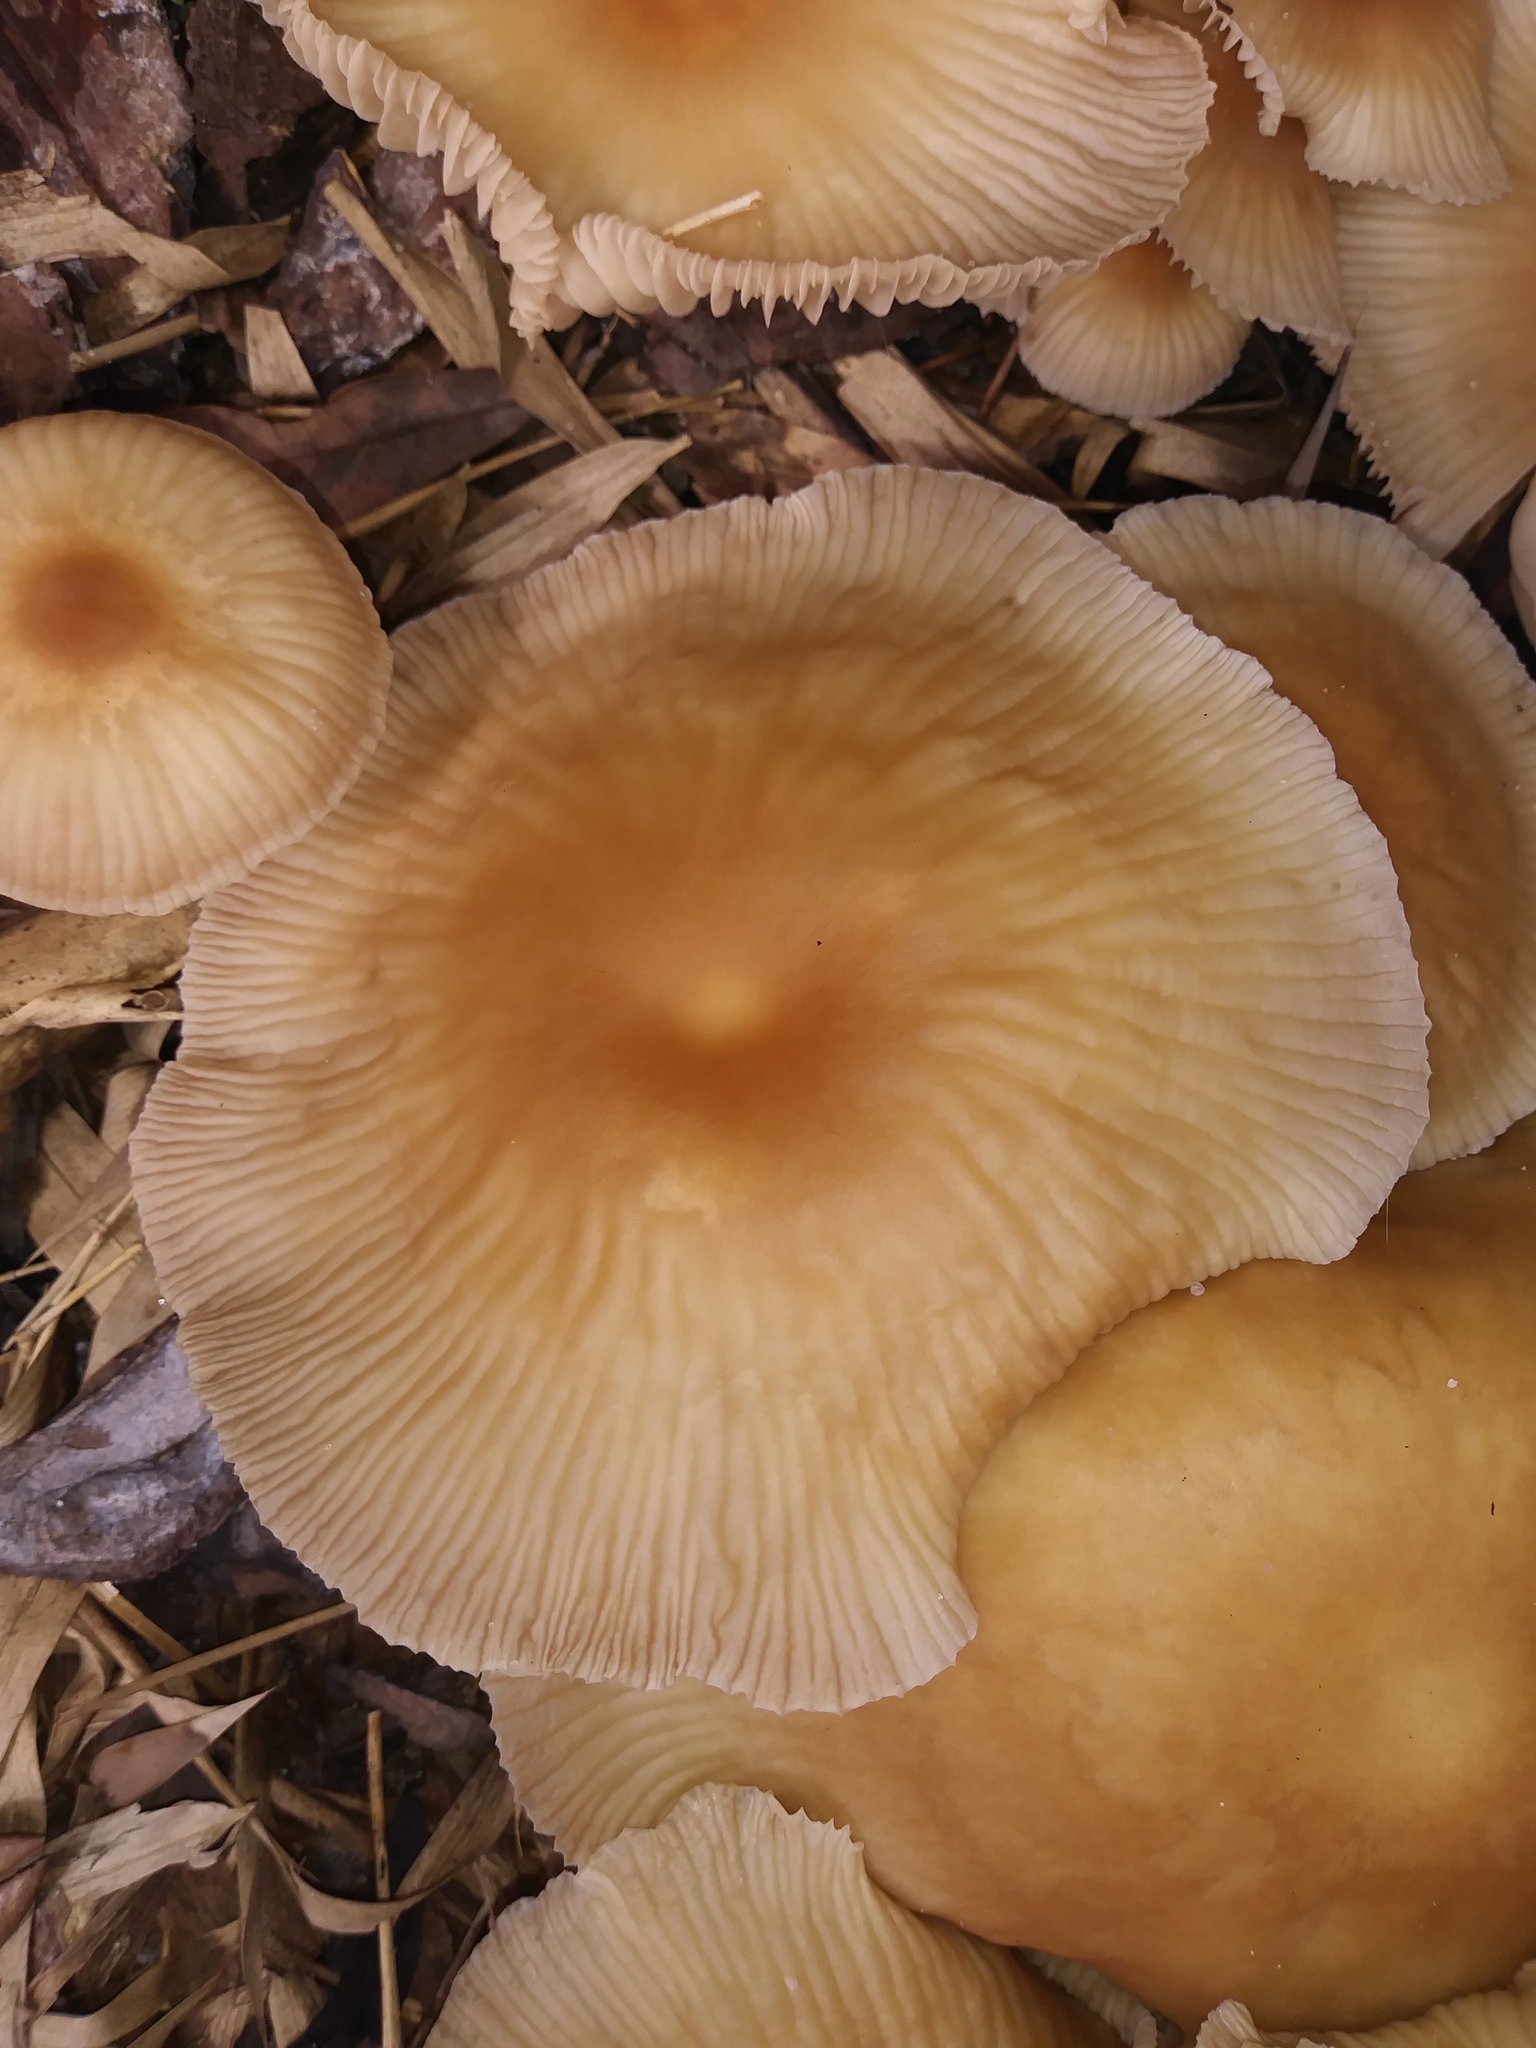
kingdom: Fungi
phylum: Basidiomycota
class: Agaricomycetes
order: Agaricales
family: Omphalotaceae
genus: Gymnopus
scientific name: Gymnopus dryophilus
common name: Penny top
